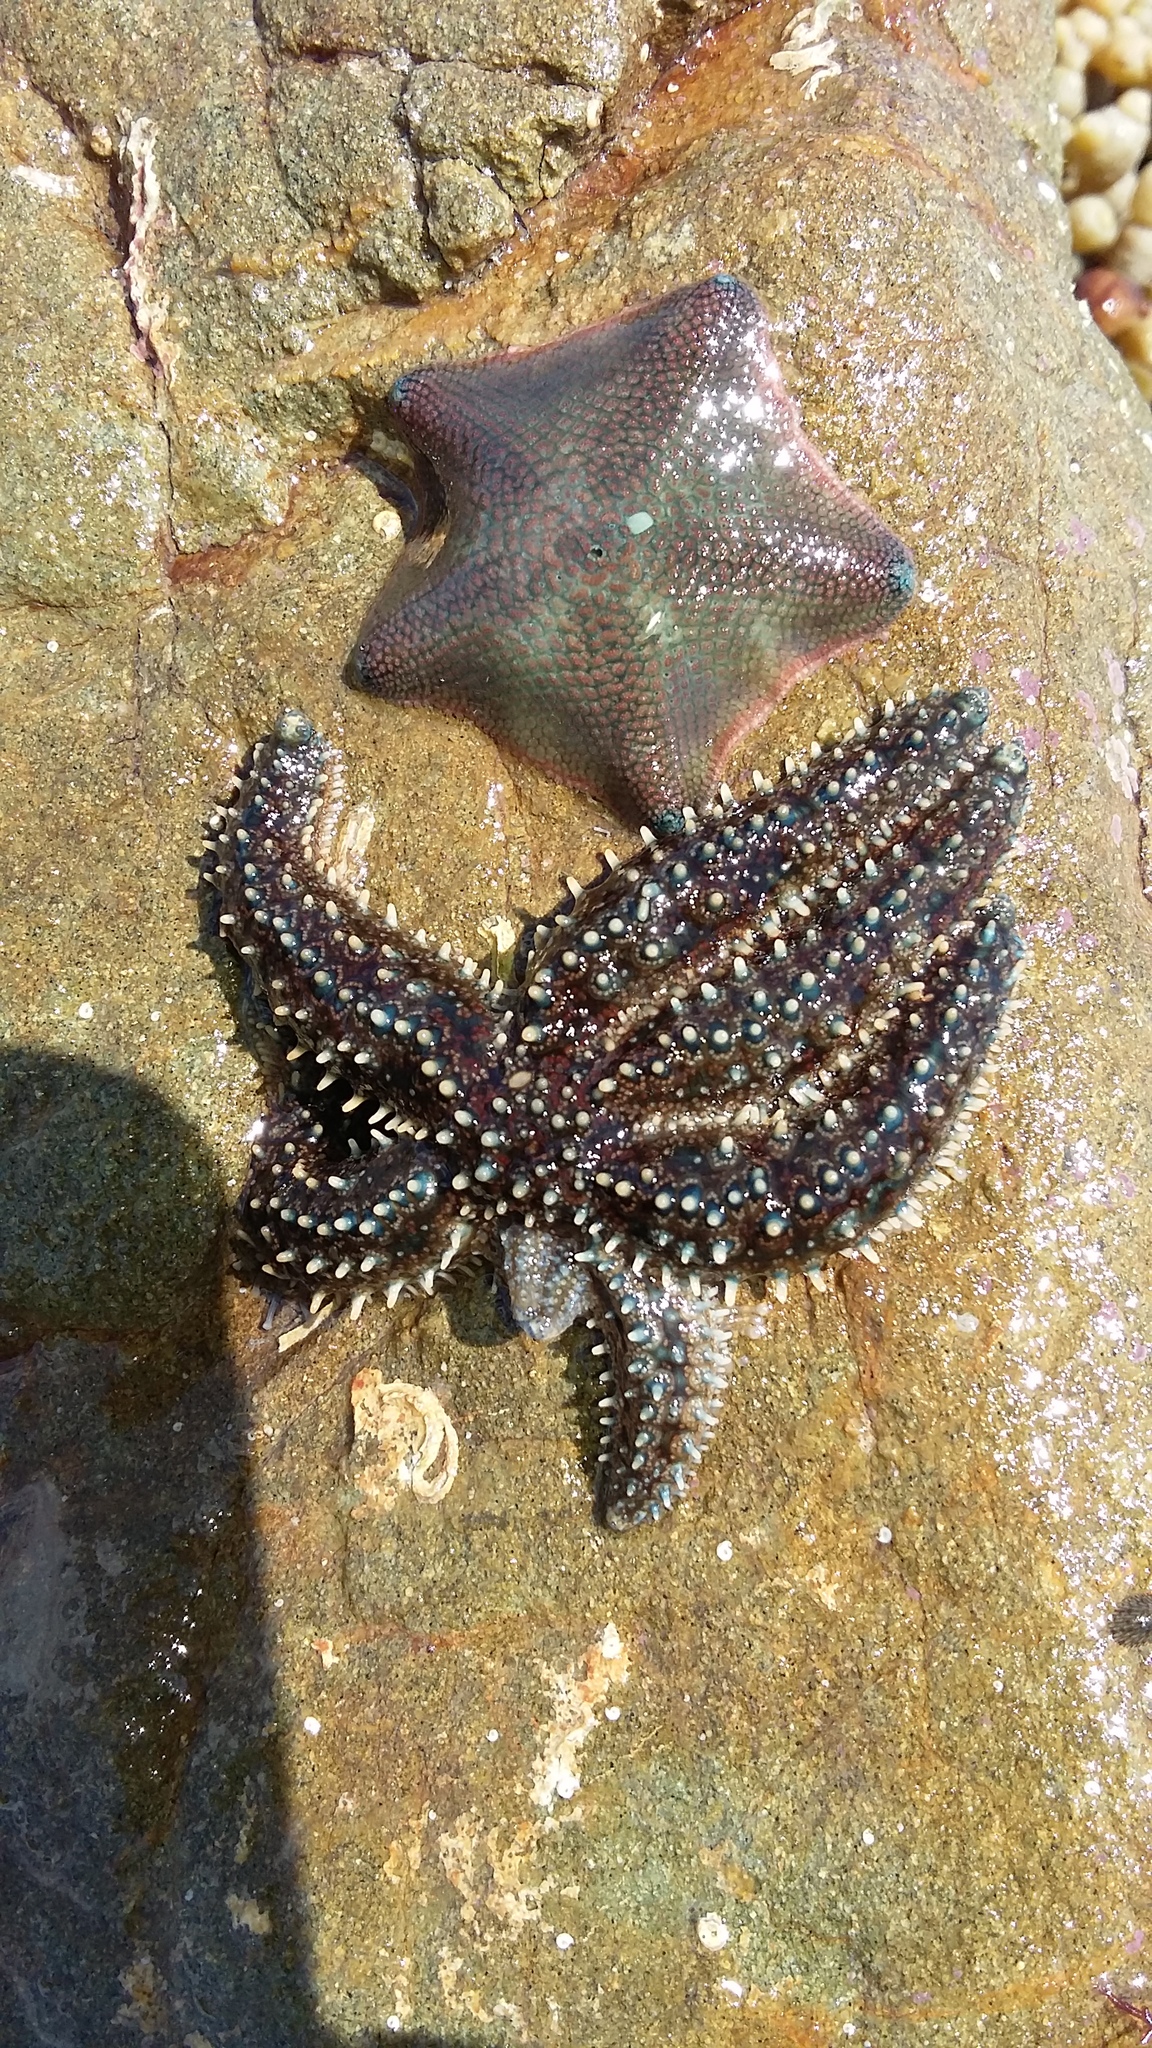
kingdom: Animalia
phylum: Echinodermata
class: Asteroidea
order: Forcipulatida
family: Asteriidae
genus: Coscinasterias
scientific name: Coscinasterias muricata
